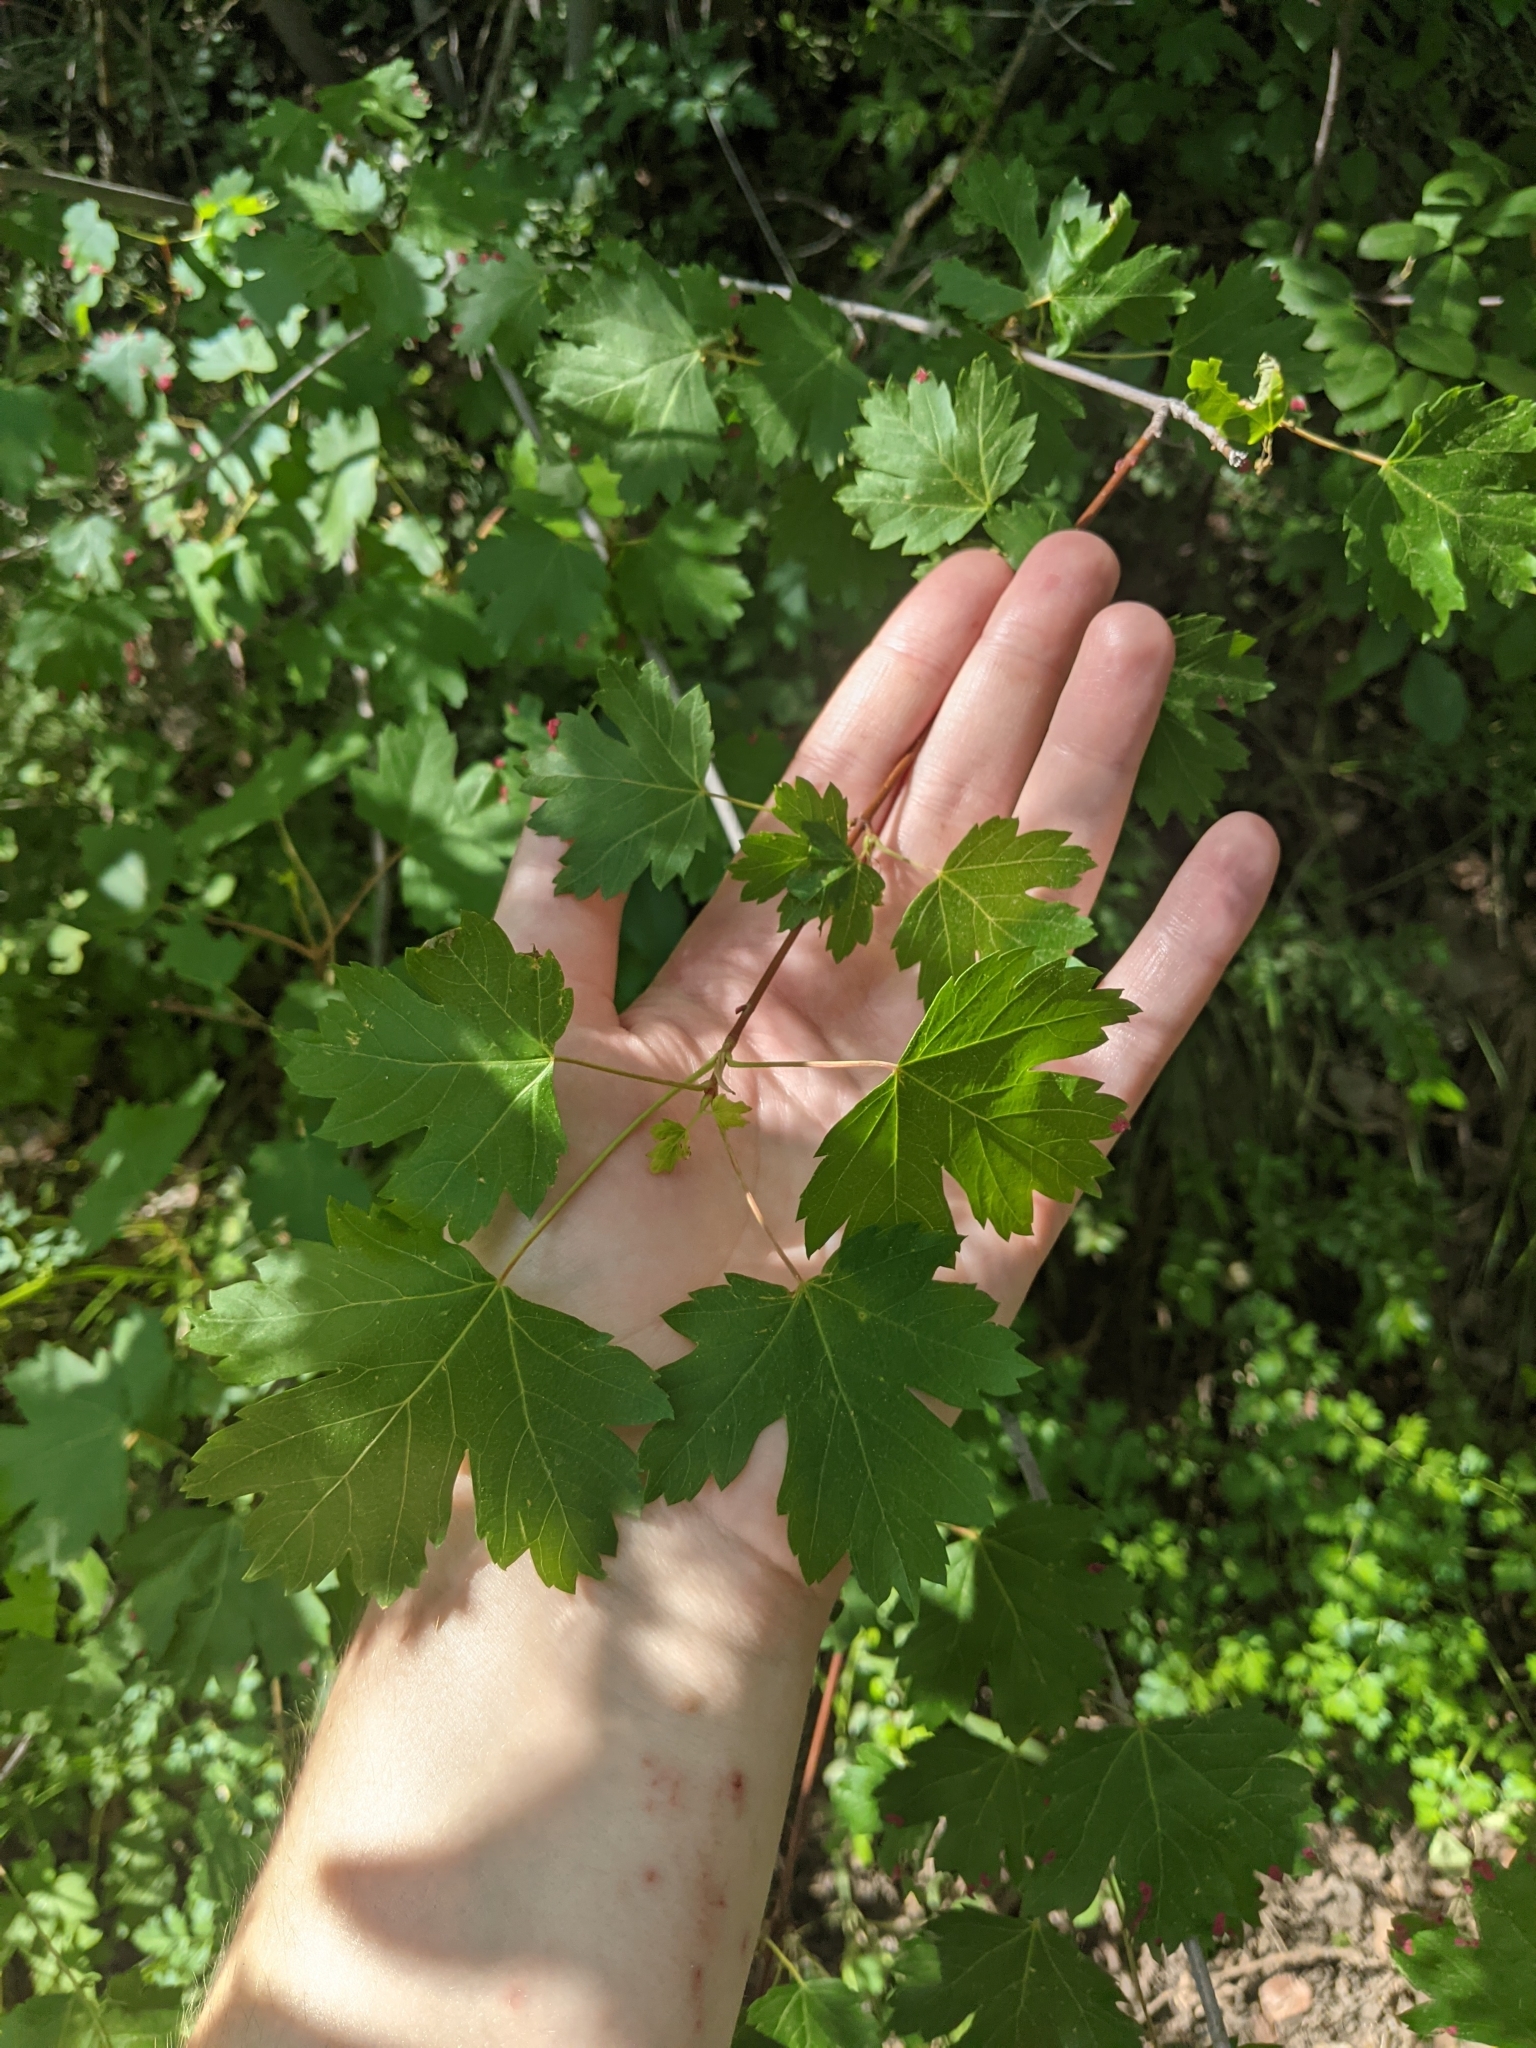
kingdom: Plantae
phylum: Tracheophyta
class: Magnoliopsida
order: Sapindales
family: Sapindaceae
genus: Acer
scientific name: Acer glabrum
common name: Rocky mountain maple
